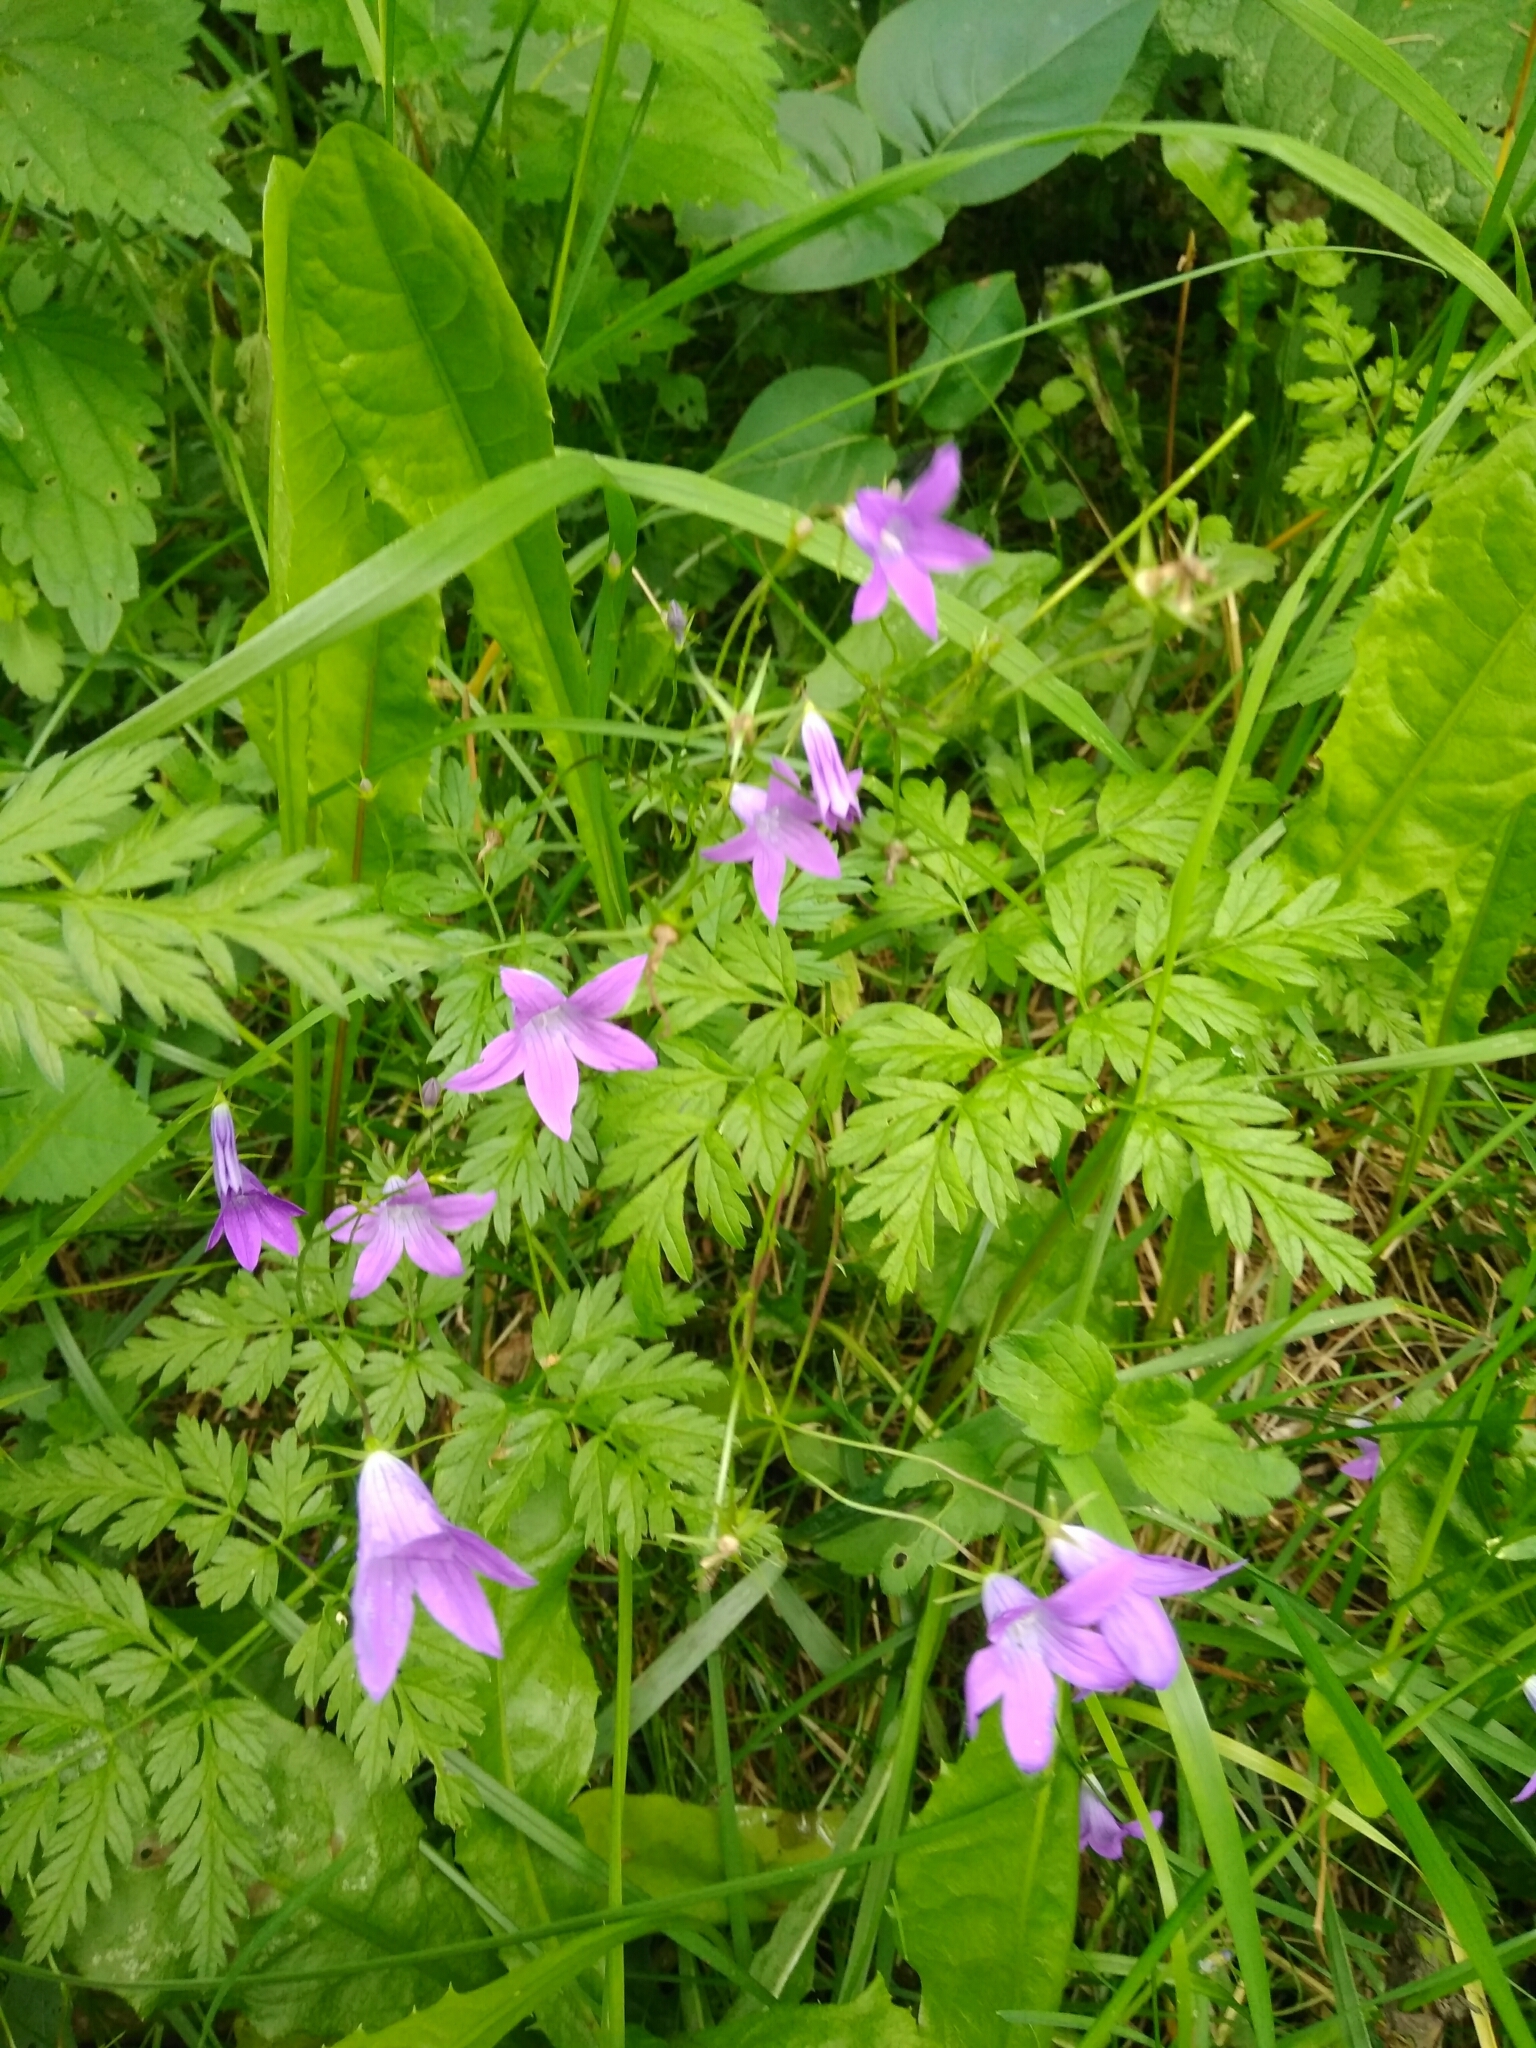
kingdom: Plantae
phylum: Tracheophyta
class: Magnoliopsida
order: Asterales
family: Campanulaceae
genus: Campanula
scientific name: Campanula patula
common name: Spreading bellflower
